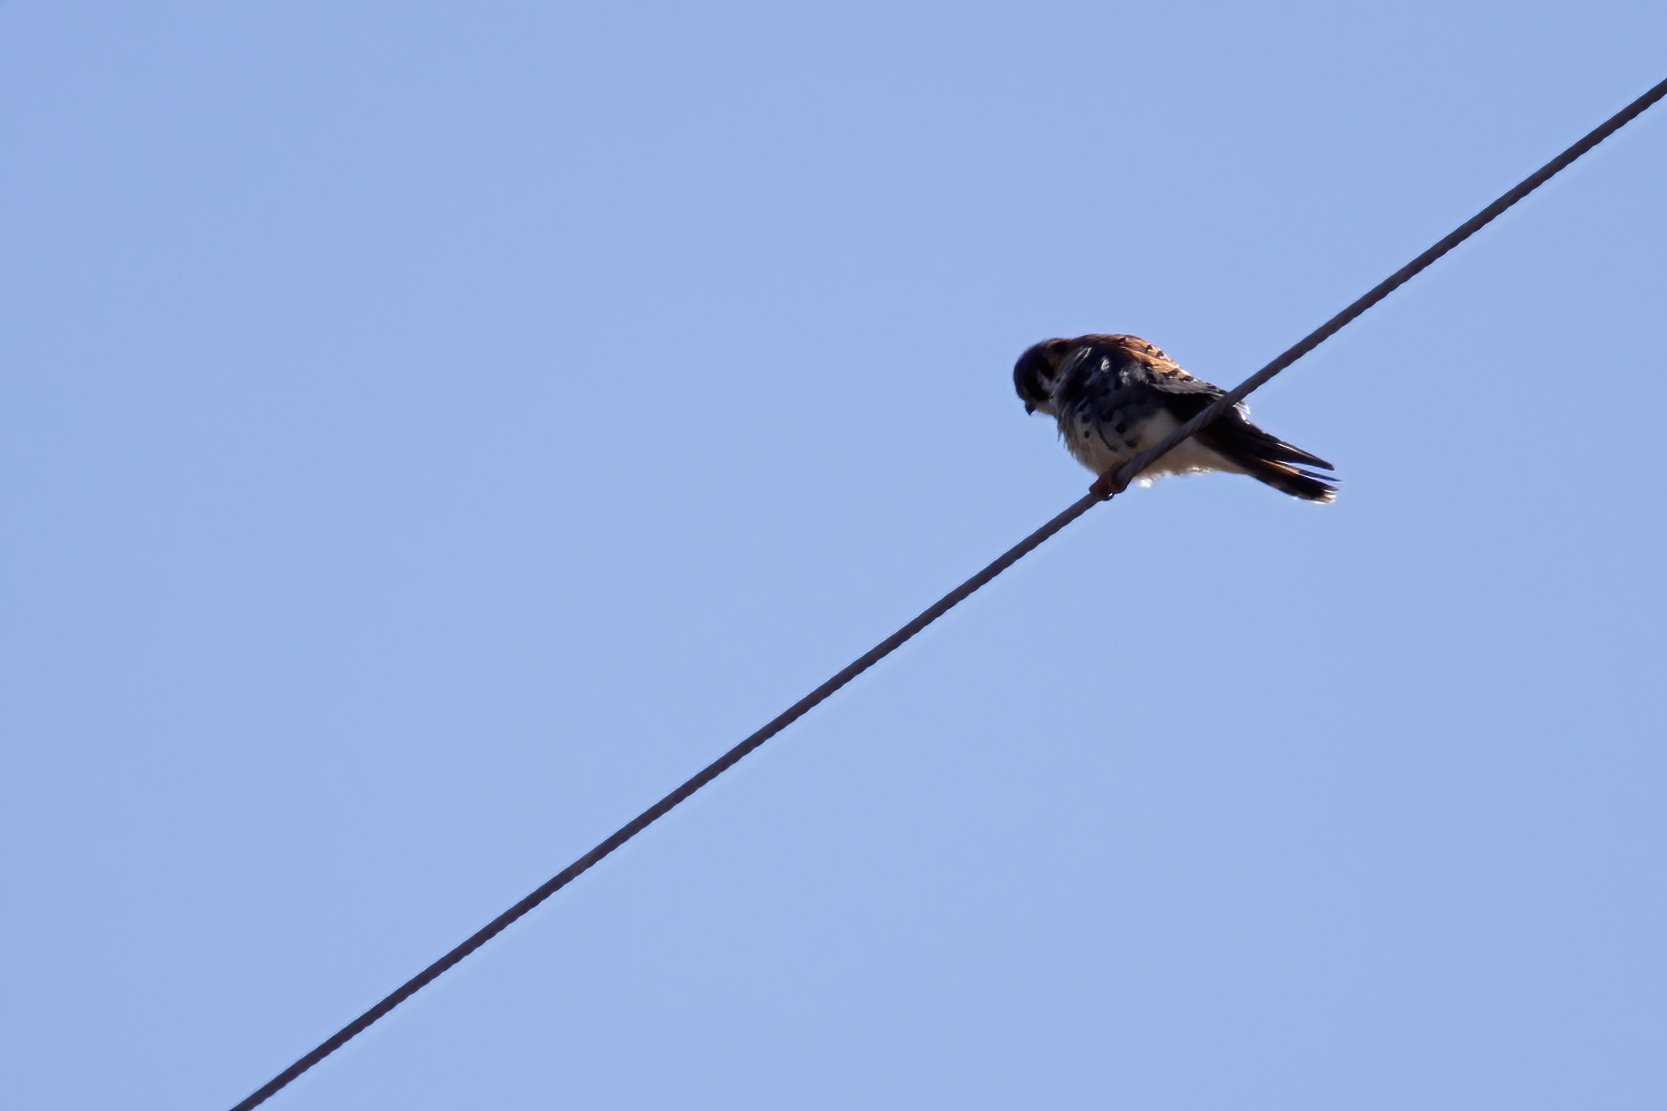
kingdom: Animalia
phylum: Chordata
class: Aves
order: Falconiformes
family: Falconidae
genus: Falco
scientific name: Falco sparverius
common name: American kestrel
